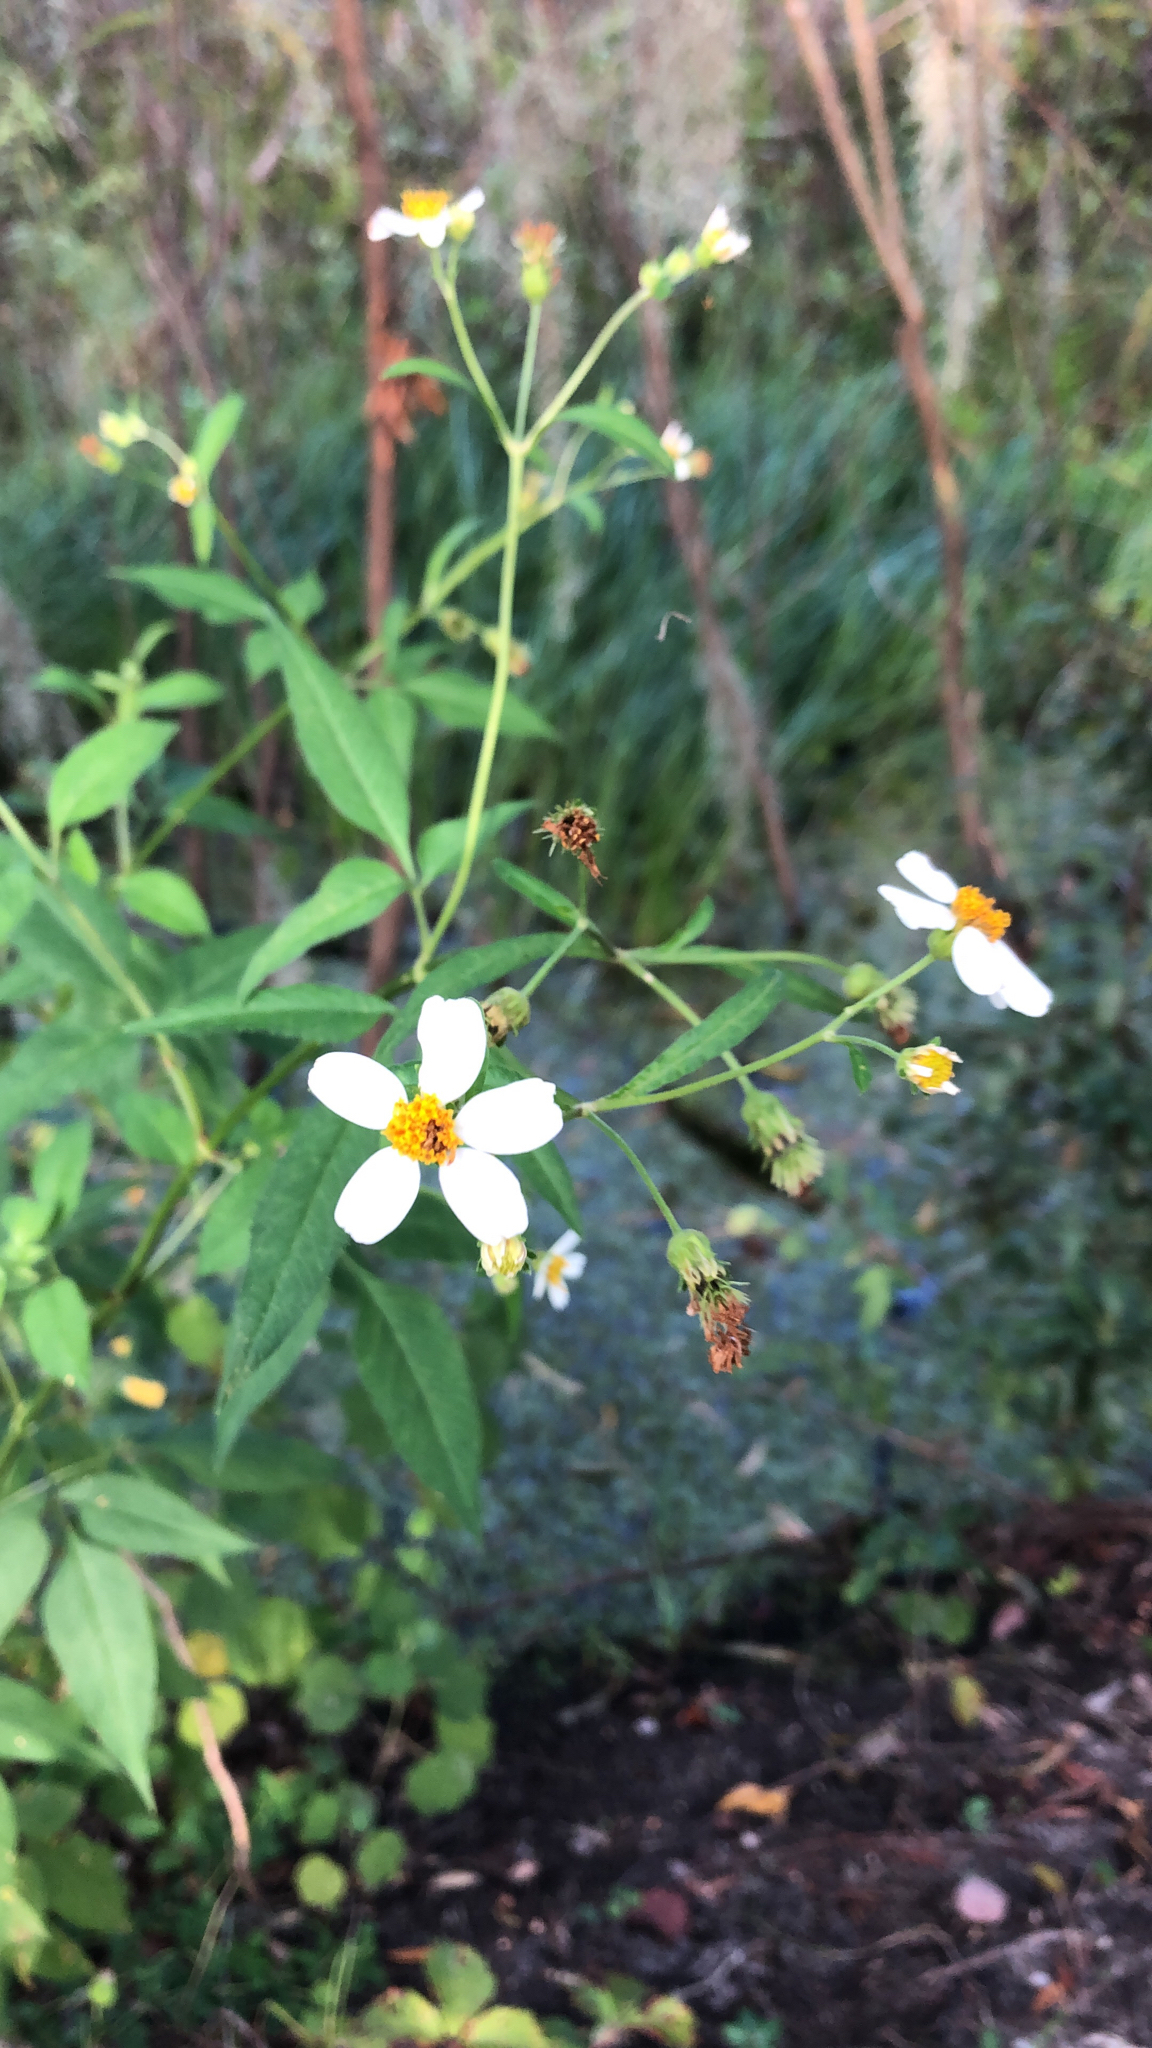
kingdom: Plantae
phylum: Tracheophyta
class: Magnoliopsida
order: Asterales
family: Asteraceae
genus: Bidens
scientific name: Bidens alba
